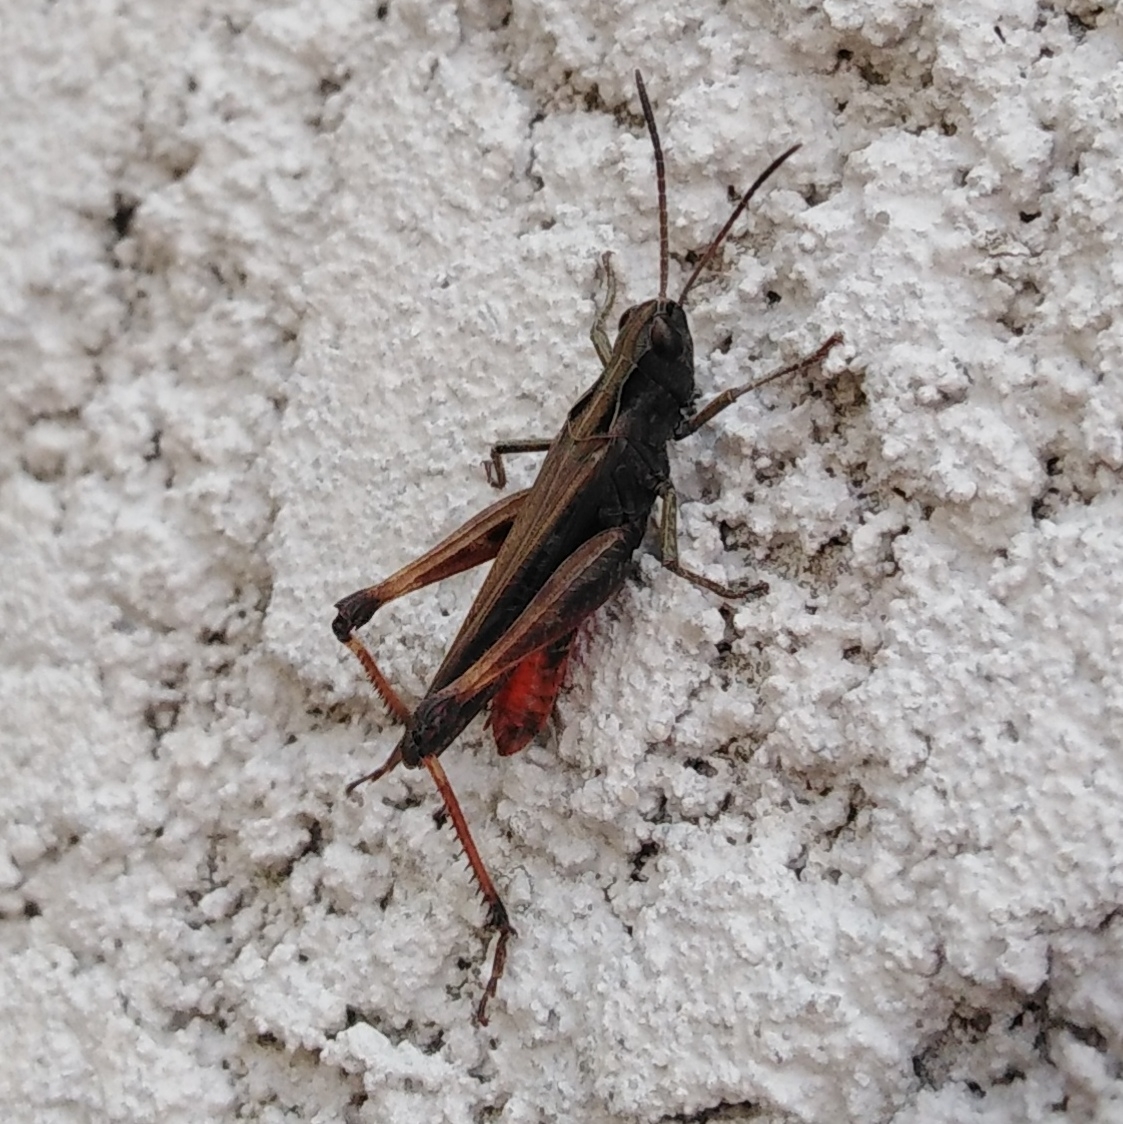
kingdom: Animalia
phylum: Arthropoda
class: Insecta
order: Orthoptera
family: Acrididae
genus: Omocestus
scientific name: Omocestus rufipes
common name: Woodland grasshopper
